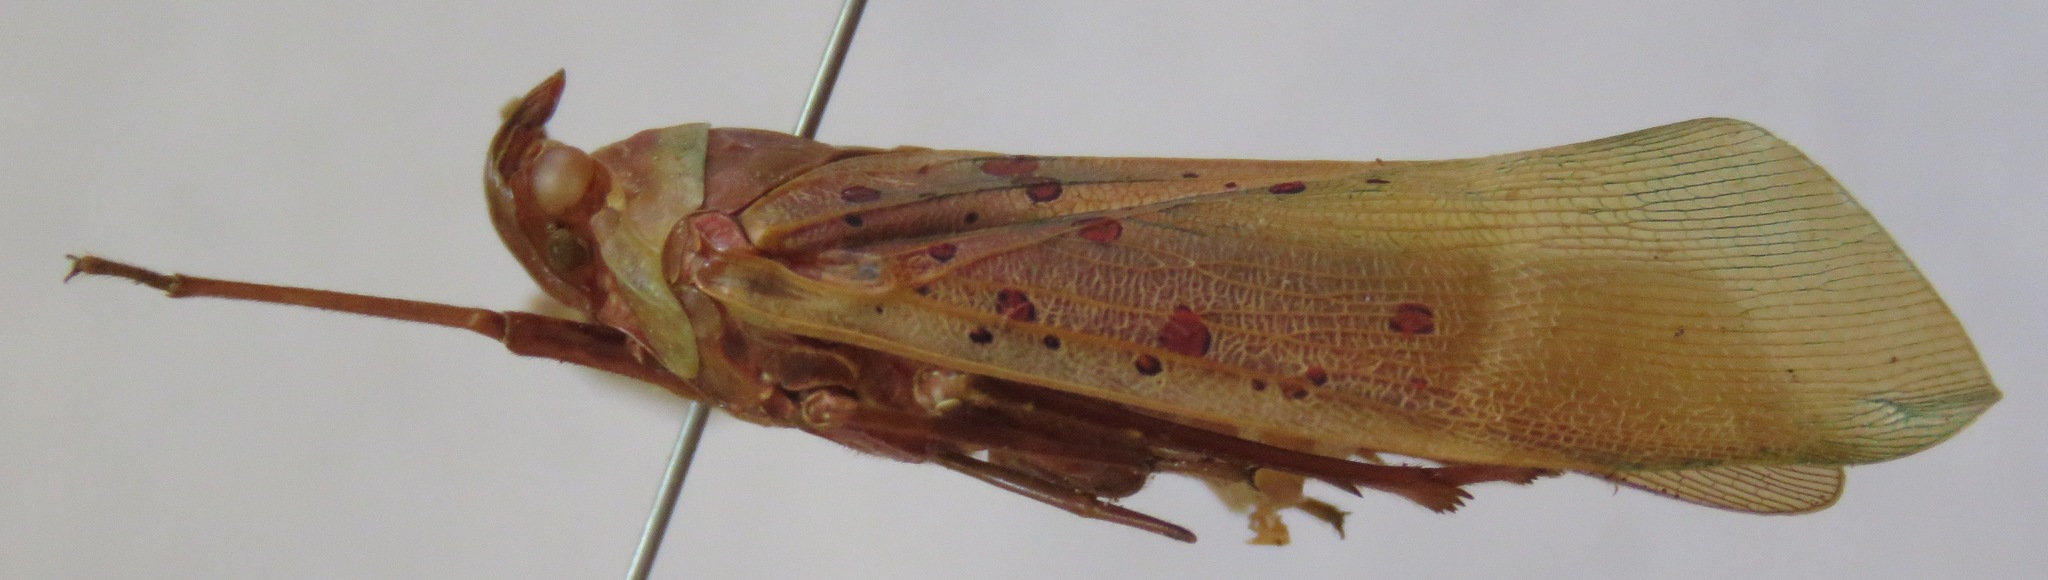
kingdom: Animalia
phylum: Arthropoda
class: Insecta
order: Hemiptera
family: Fulgoridae
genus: Copidocephala
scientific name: Copidocephala guttata
